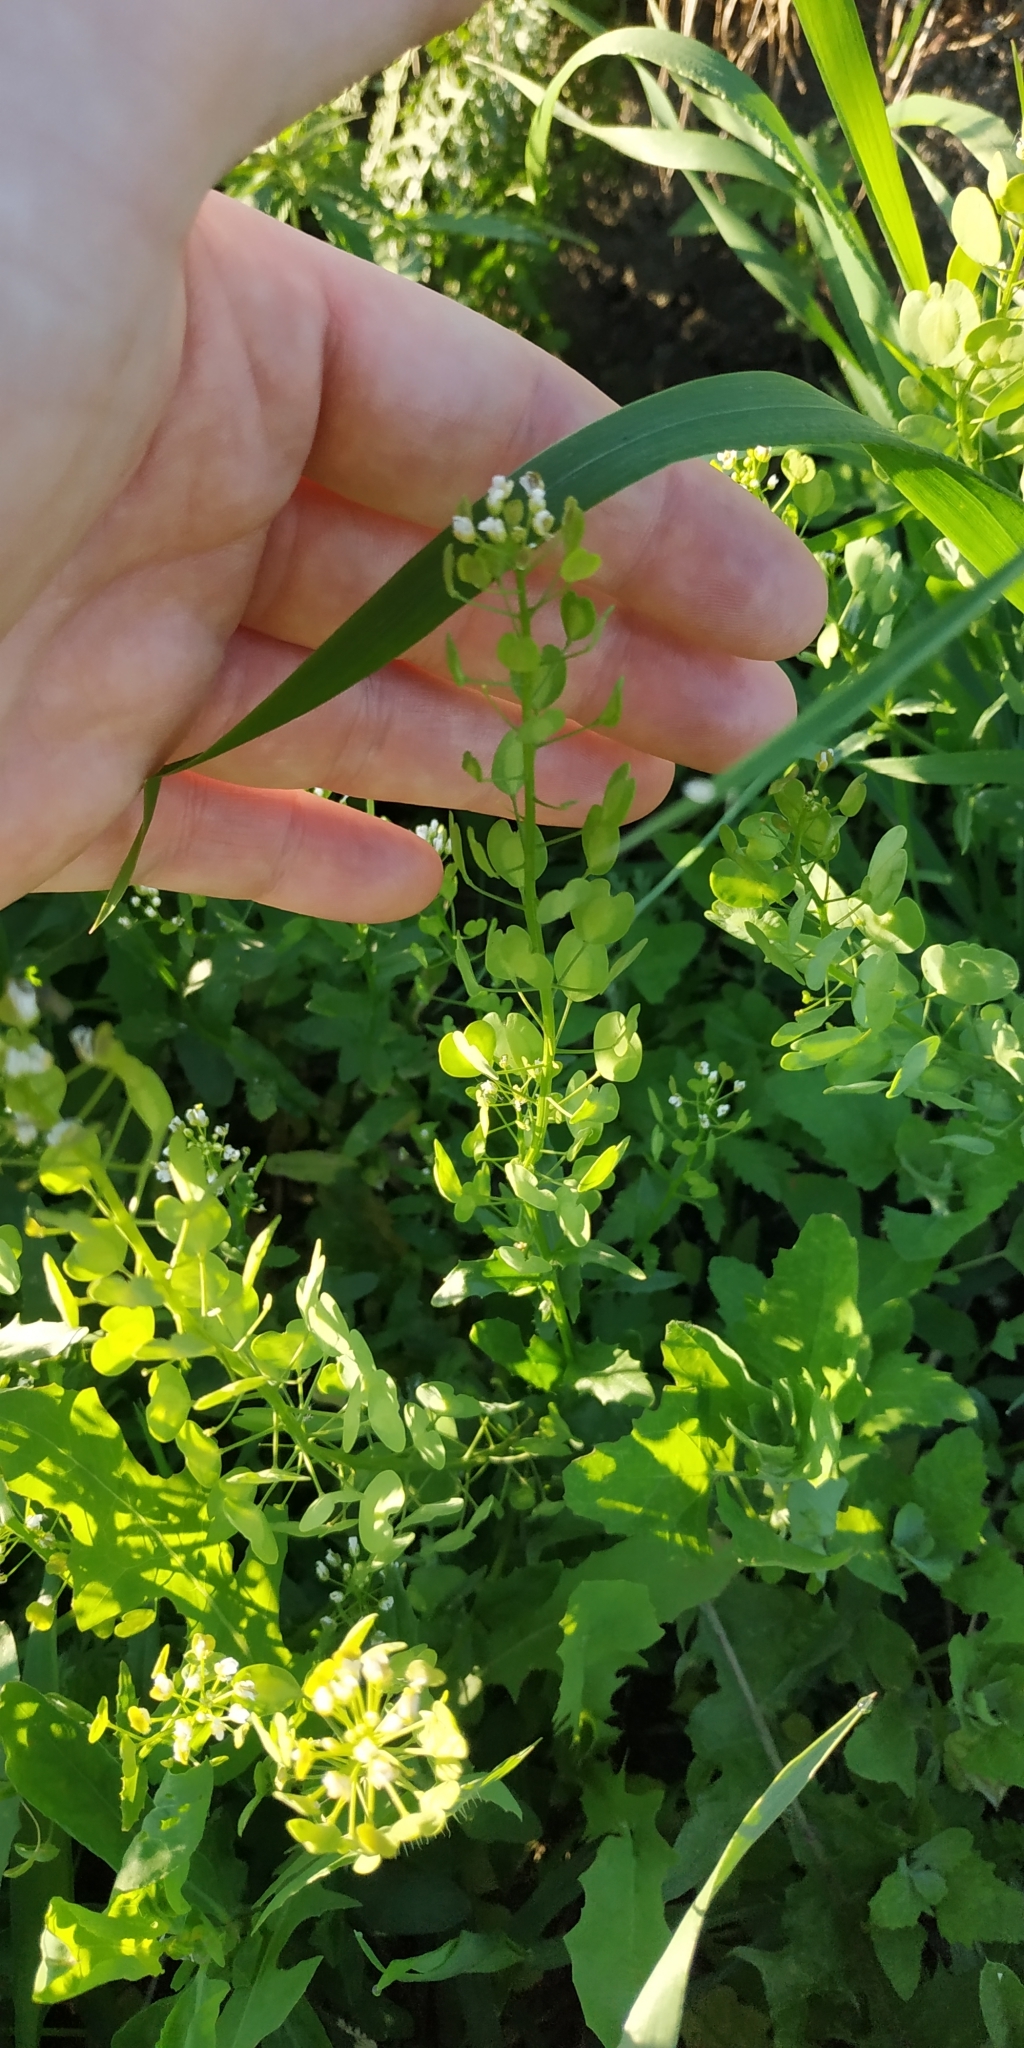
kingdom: Plantae
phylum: Tracheophyta
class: Magnoliopsida
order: Brassicales
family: Brassicaceae
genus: Thlaspi
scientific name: Thlaspi arvense
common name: Field pennycress
